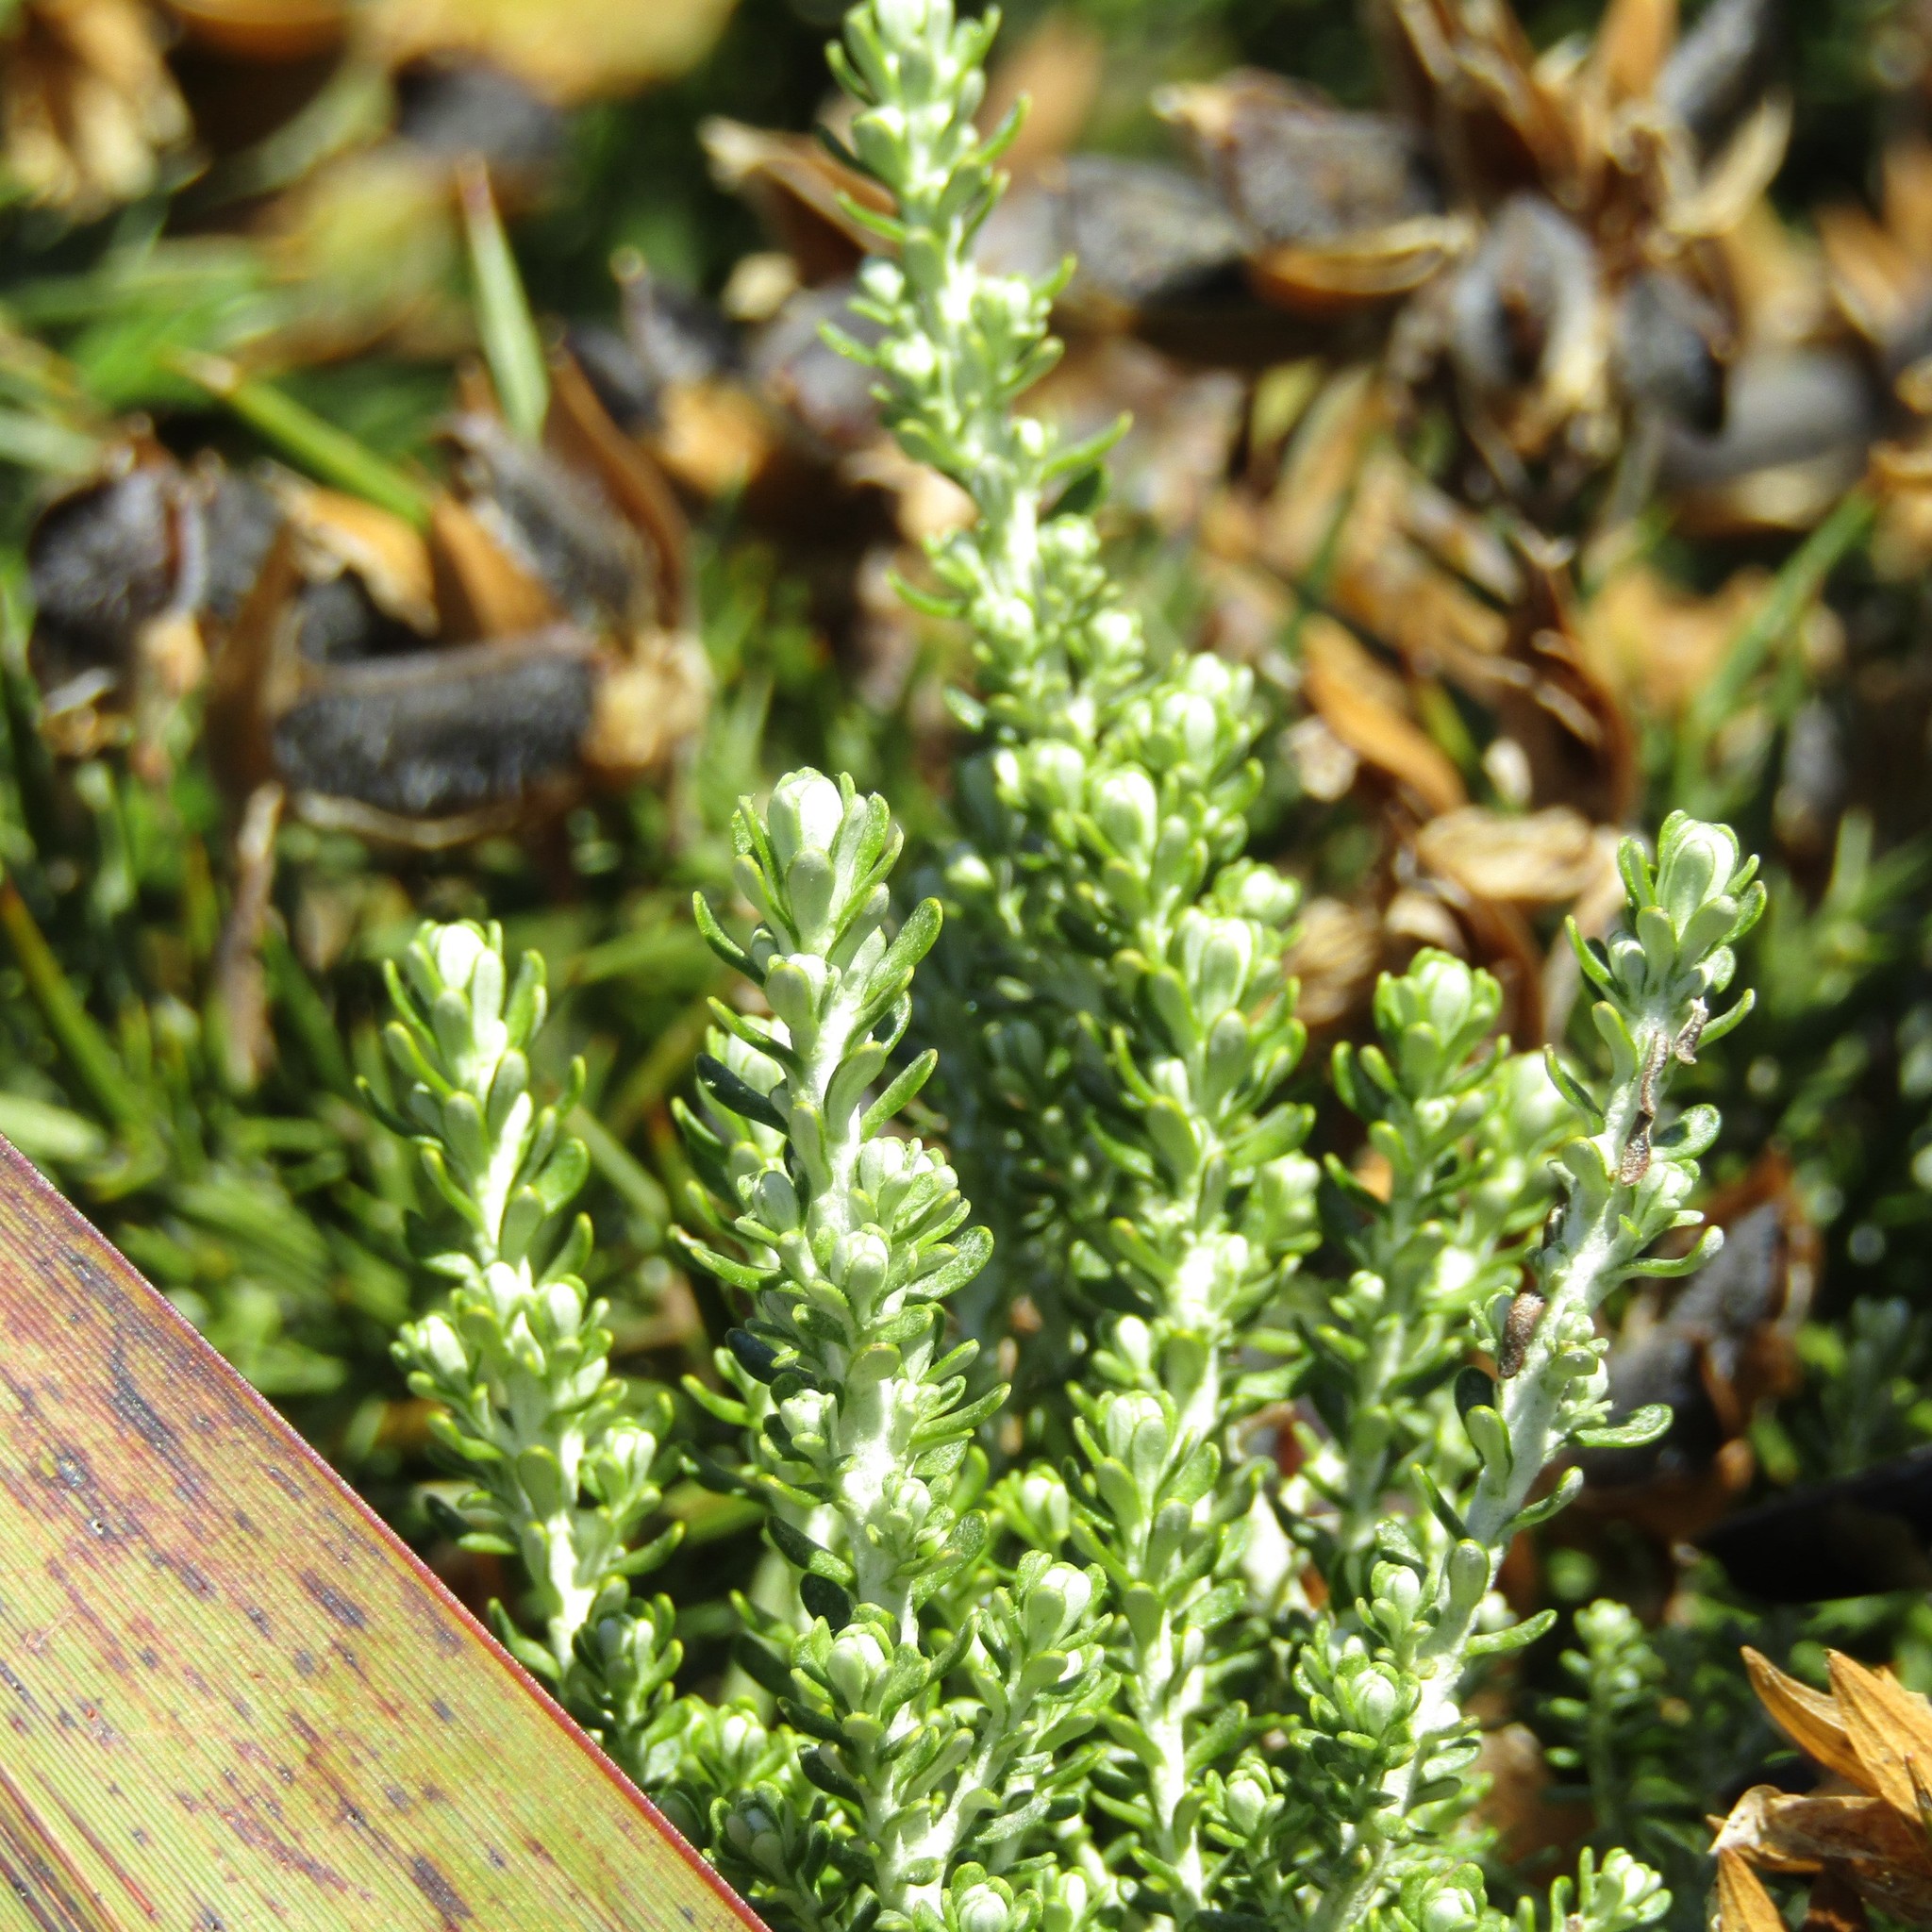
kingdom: Plantae
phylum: Tracheophyta
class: Magnoliopsida
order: Asterales
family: Asteraceae
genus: Ozothamnus
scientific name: Ozothamnus leptophyllus
